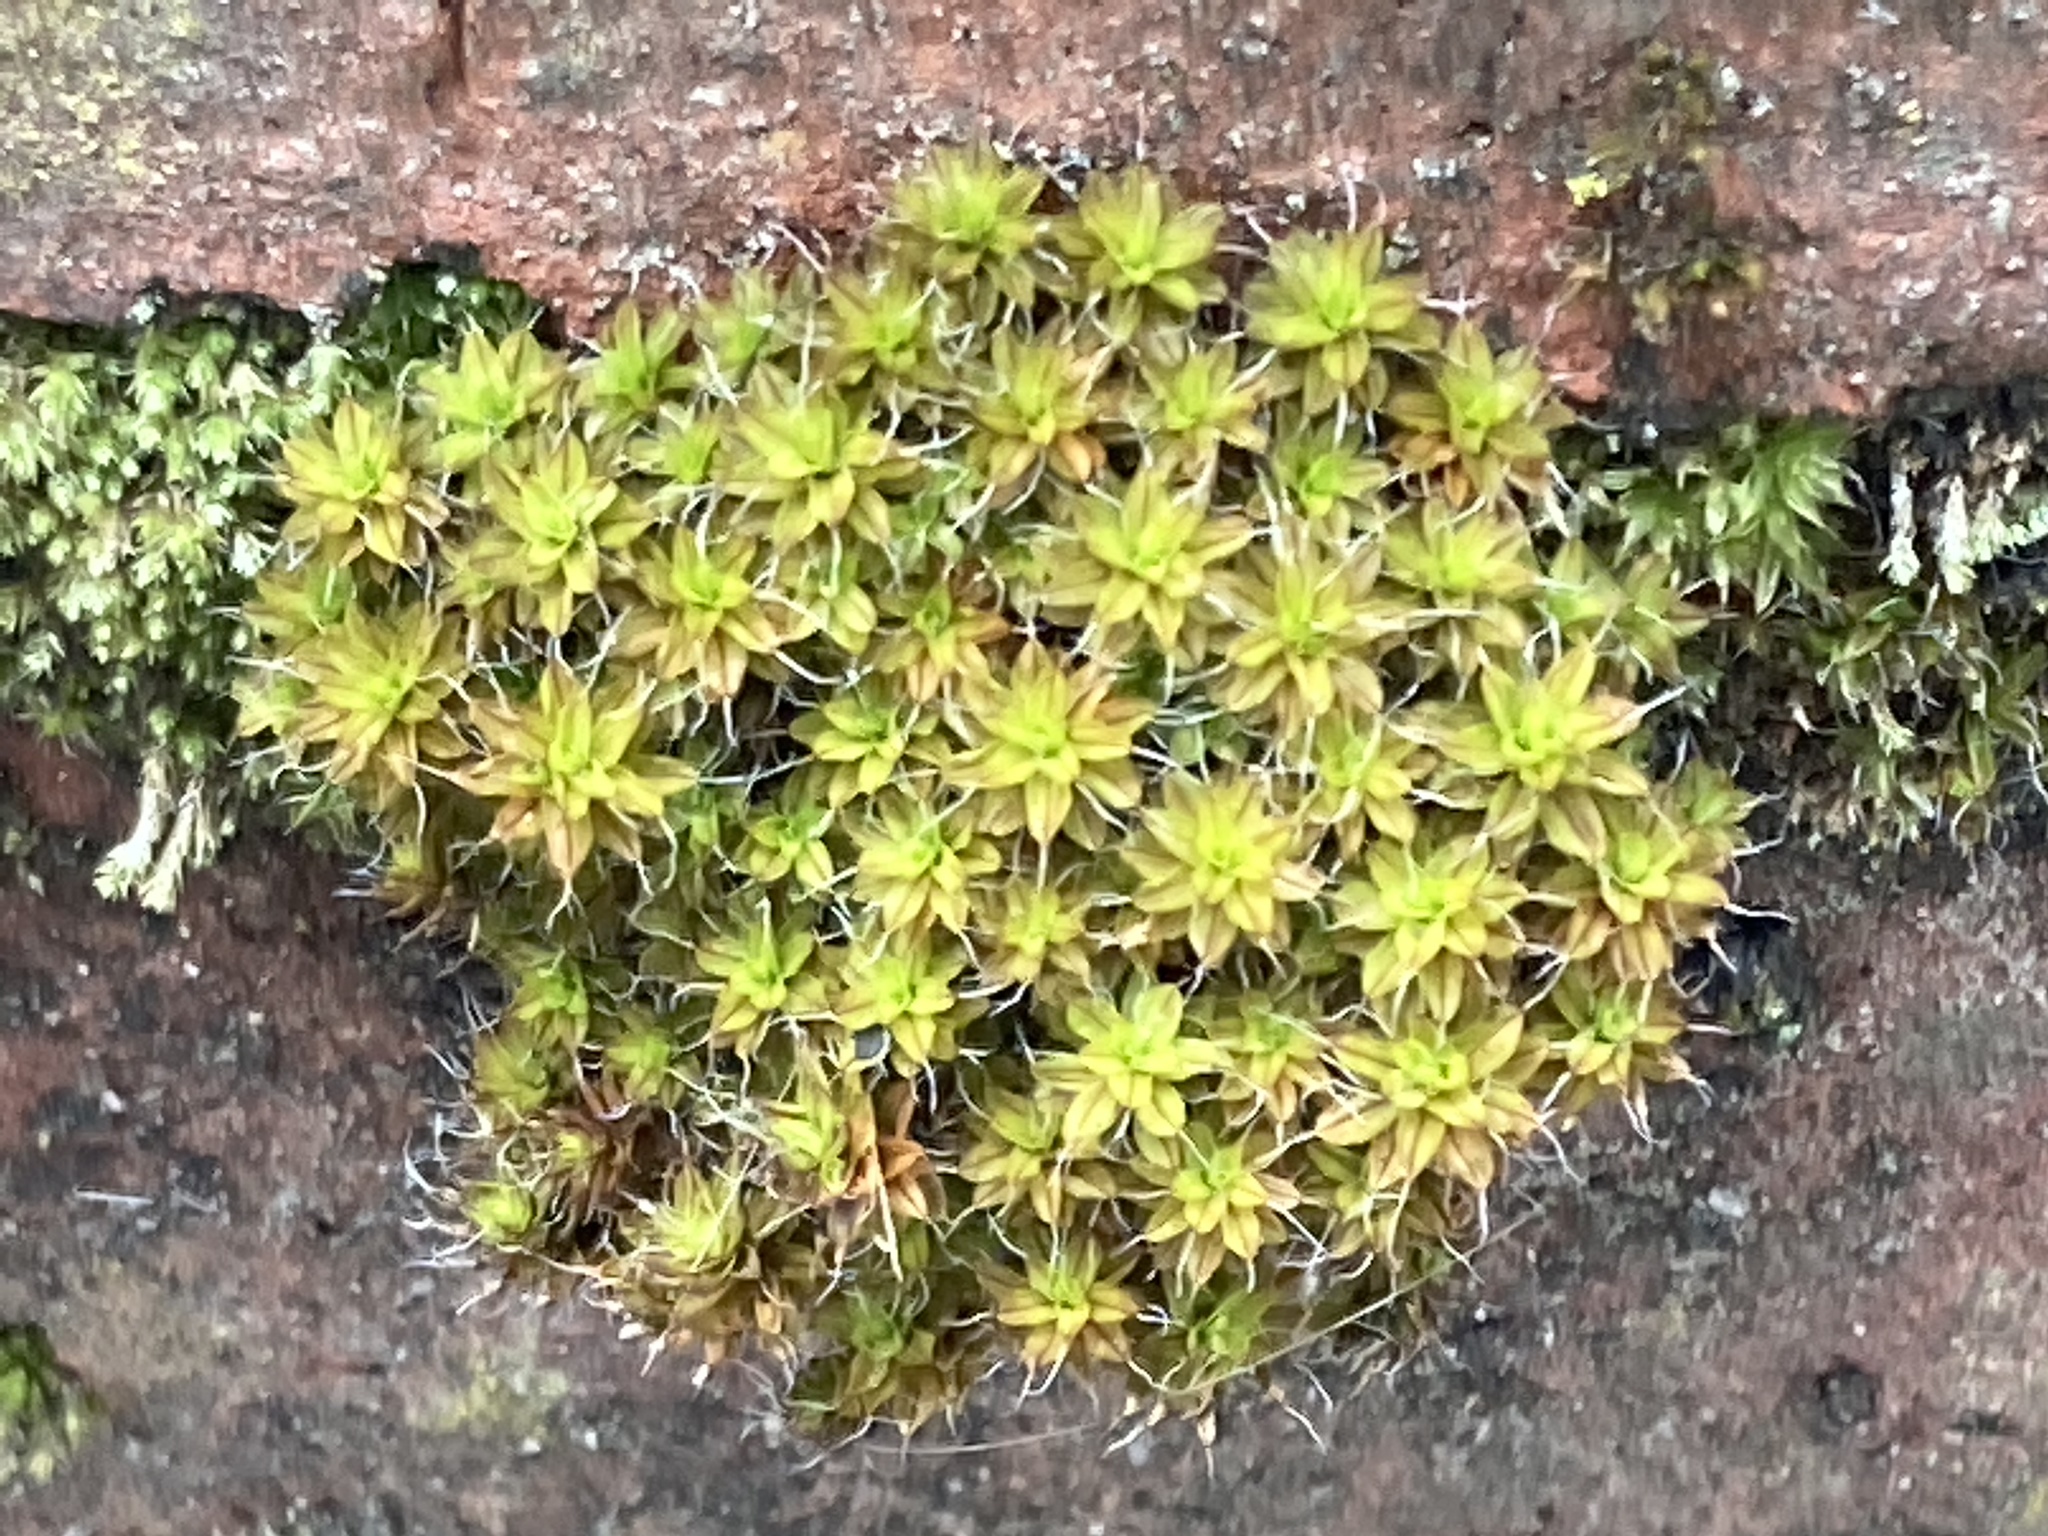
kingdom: Plantae
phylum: Bryophyta
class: Bryopsida
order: Pottiales
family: Pottiaceae
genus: Syntrichia
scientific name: Syntrichia ruralis
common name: Sidewalk screw moss
